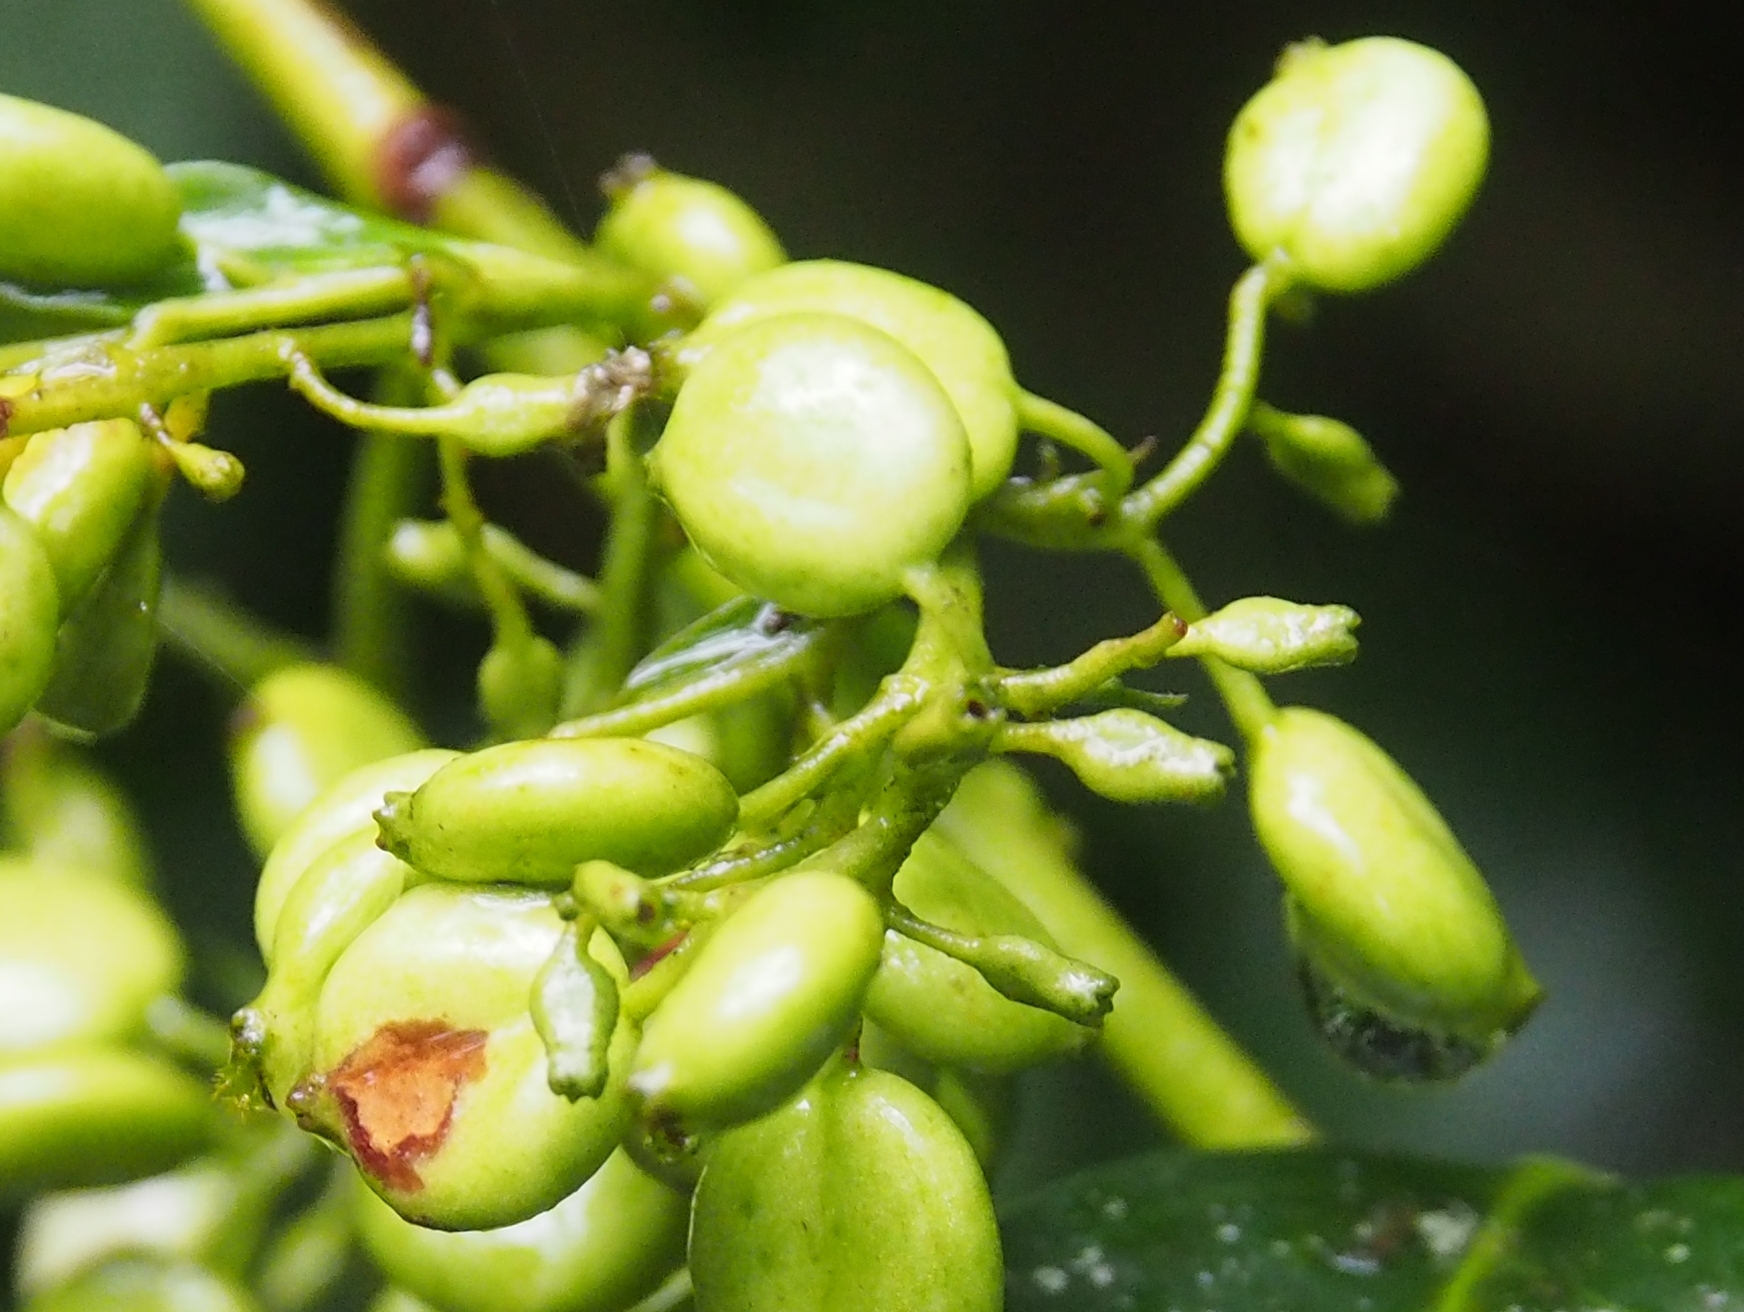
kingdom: Plantae
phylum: Tracheophyta
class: Magnoliopsida
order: Gentianales
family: Rubiaceae
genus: Chiococca
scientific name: Chiococca alba
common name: Snowberry
